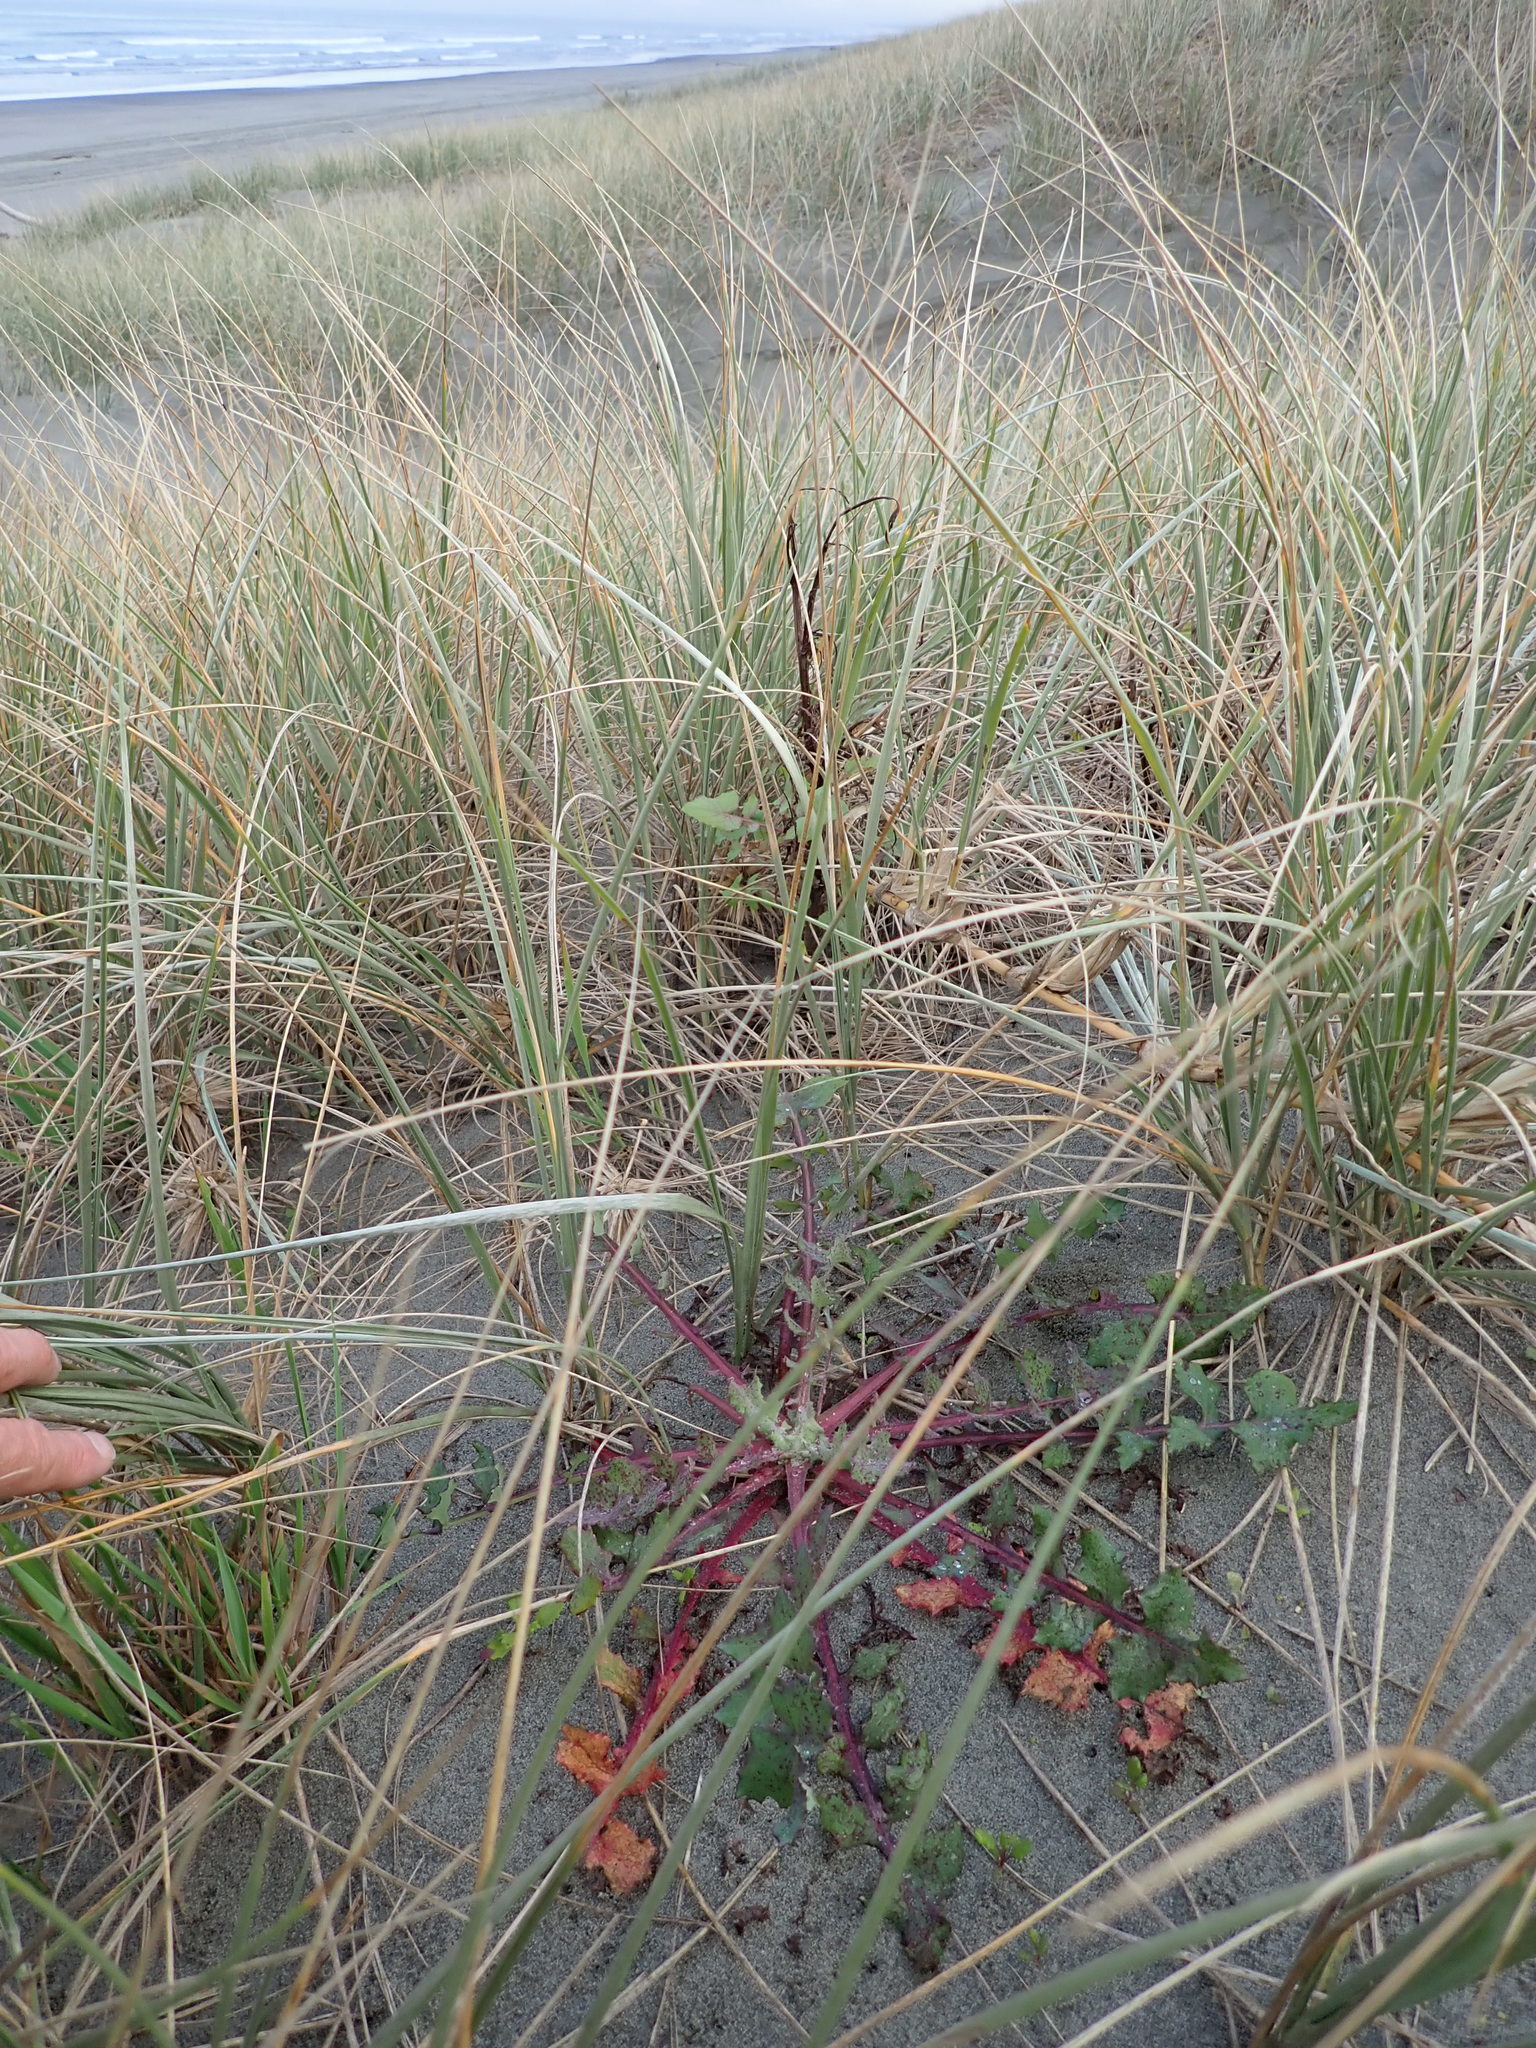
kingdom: Plantae
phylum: Tracheophyta
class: Magnoliopsida
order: Asterales
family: Asteraceae
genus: Sonchus
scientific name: Sonchus oleraceus
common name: Common sowthistle
